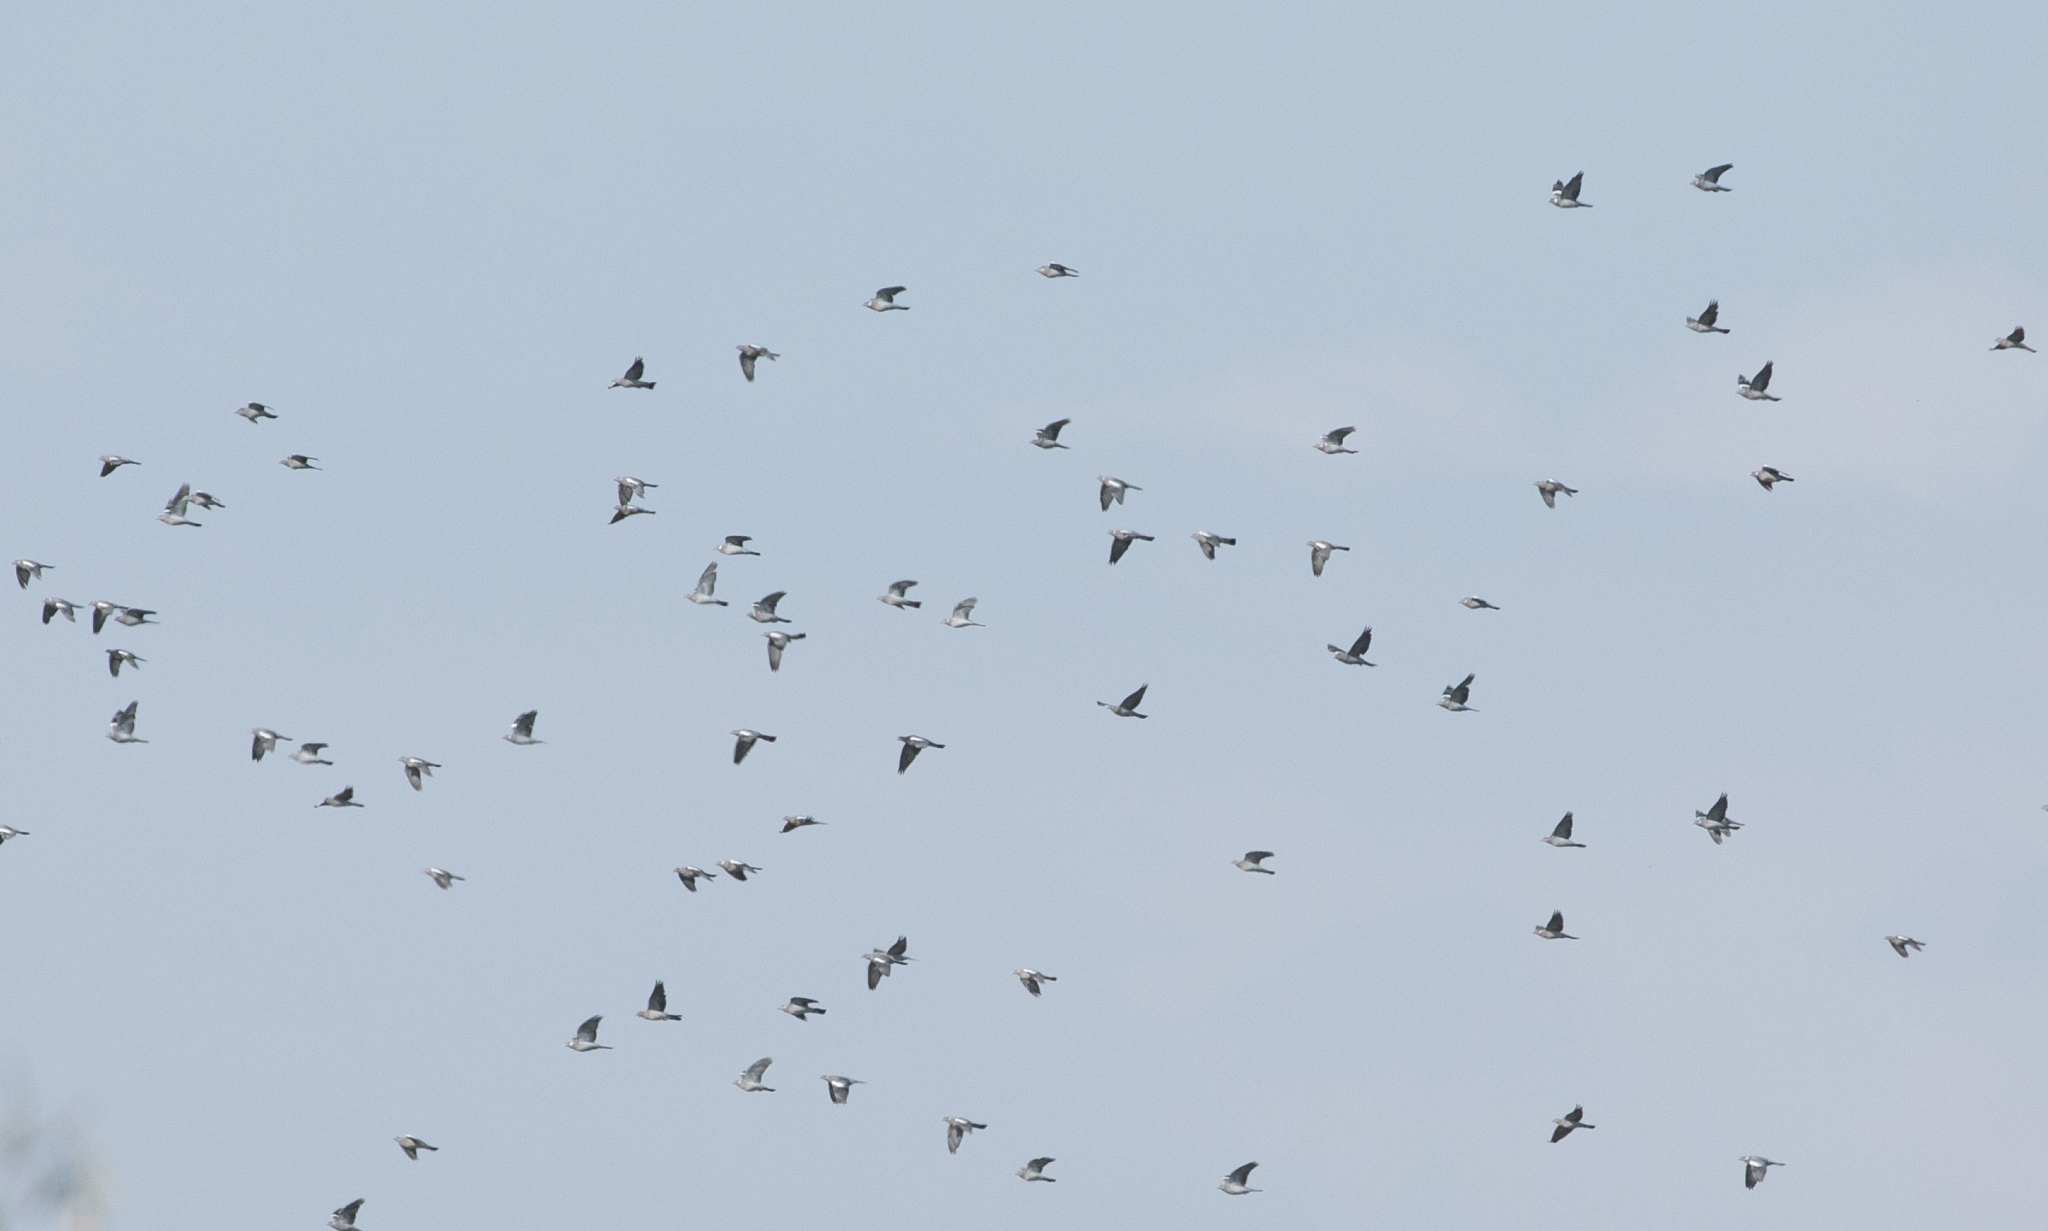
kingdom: Animalia
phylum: Chordata
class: Aves
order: Columbiformes
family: Columbidae
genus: Columba
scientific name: Columba palumbus
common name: Common wood pigeon
